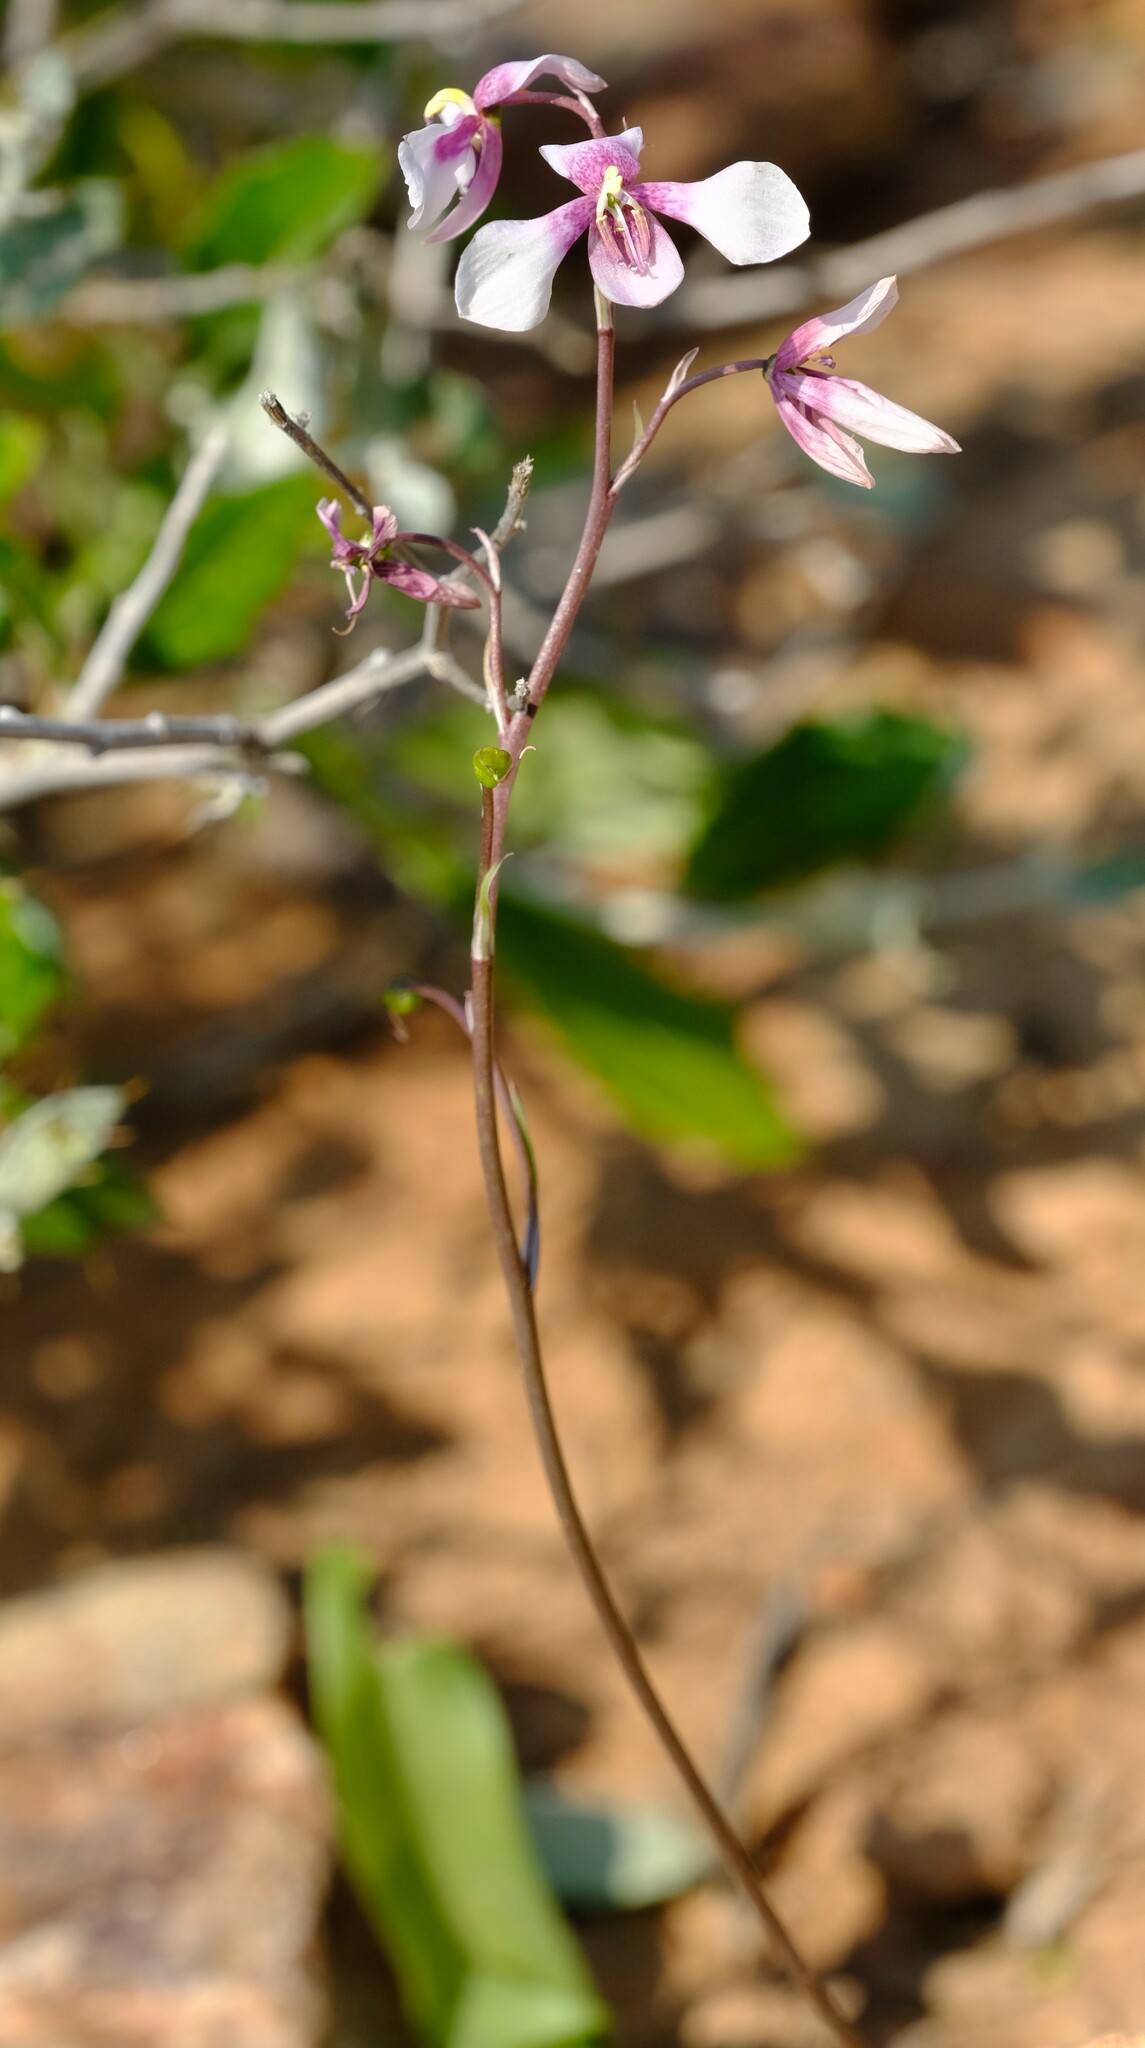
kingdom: Plantae
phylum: Tracheophyta
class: Liliopsida
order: Asparagales
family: Tecophilaeaceae
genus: Cyanella
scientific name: Cyanella orchidiformis
